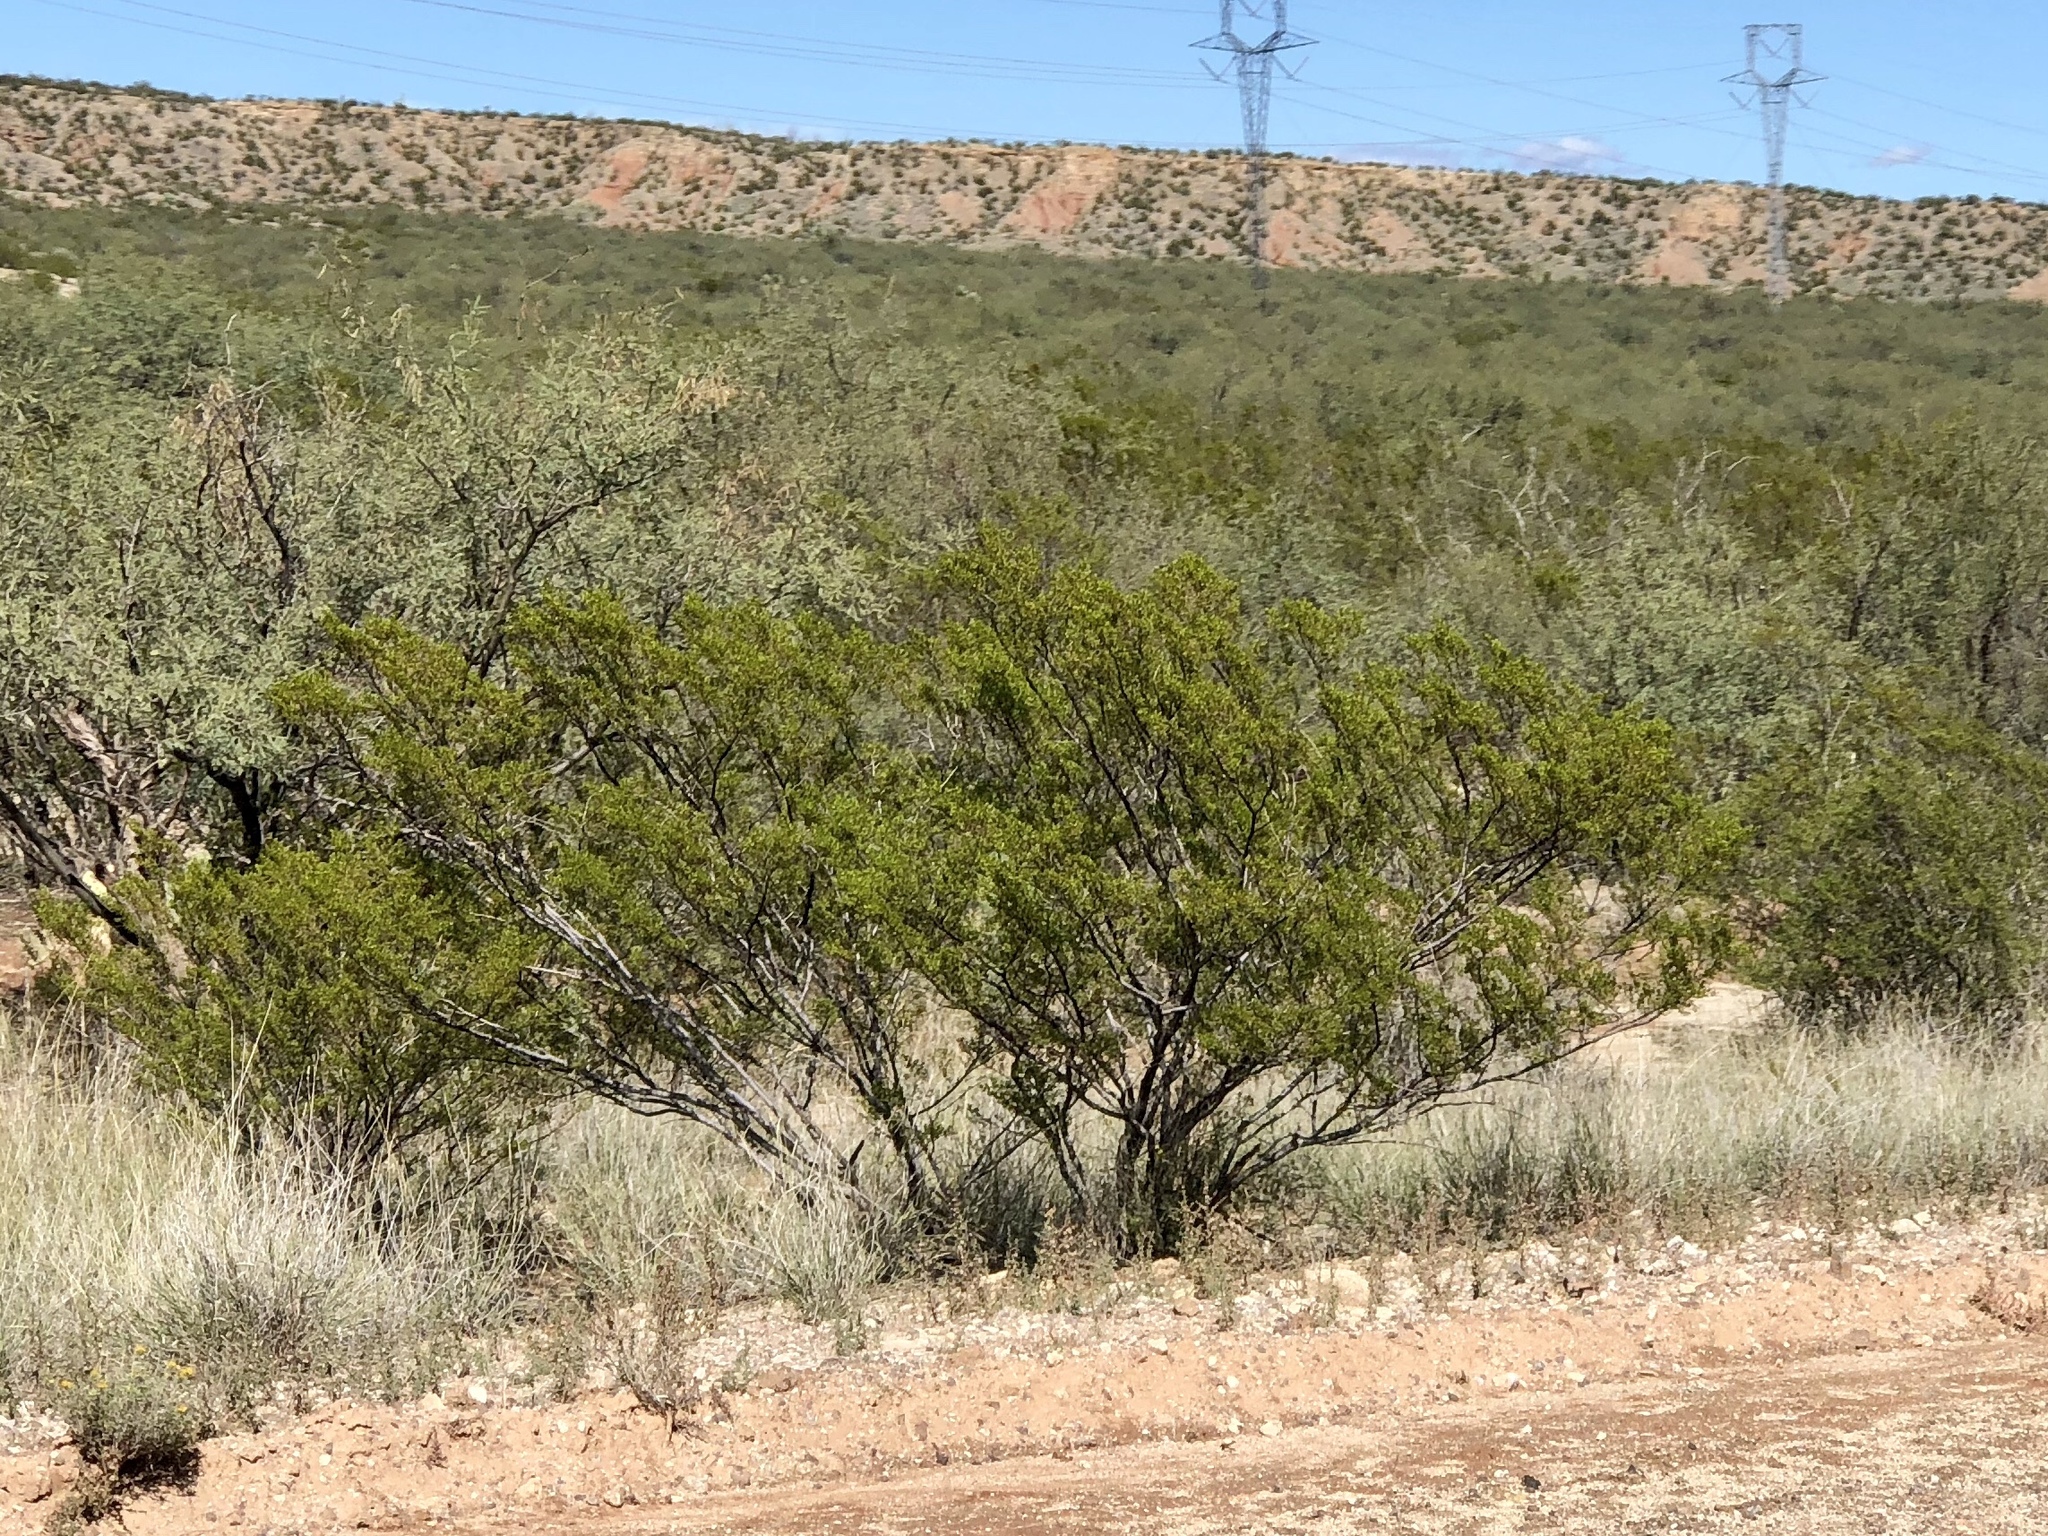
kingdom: Plantae
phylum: Tracheophyta
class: Magnoliopsida
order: Zygophyllales
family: Zygophyllaceae
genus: Larrea
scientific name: Larrea tridentata
